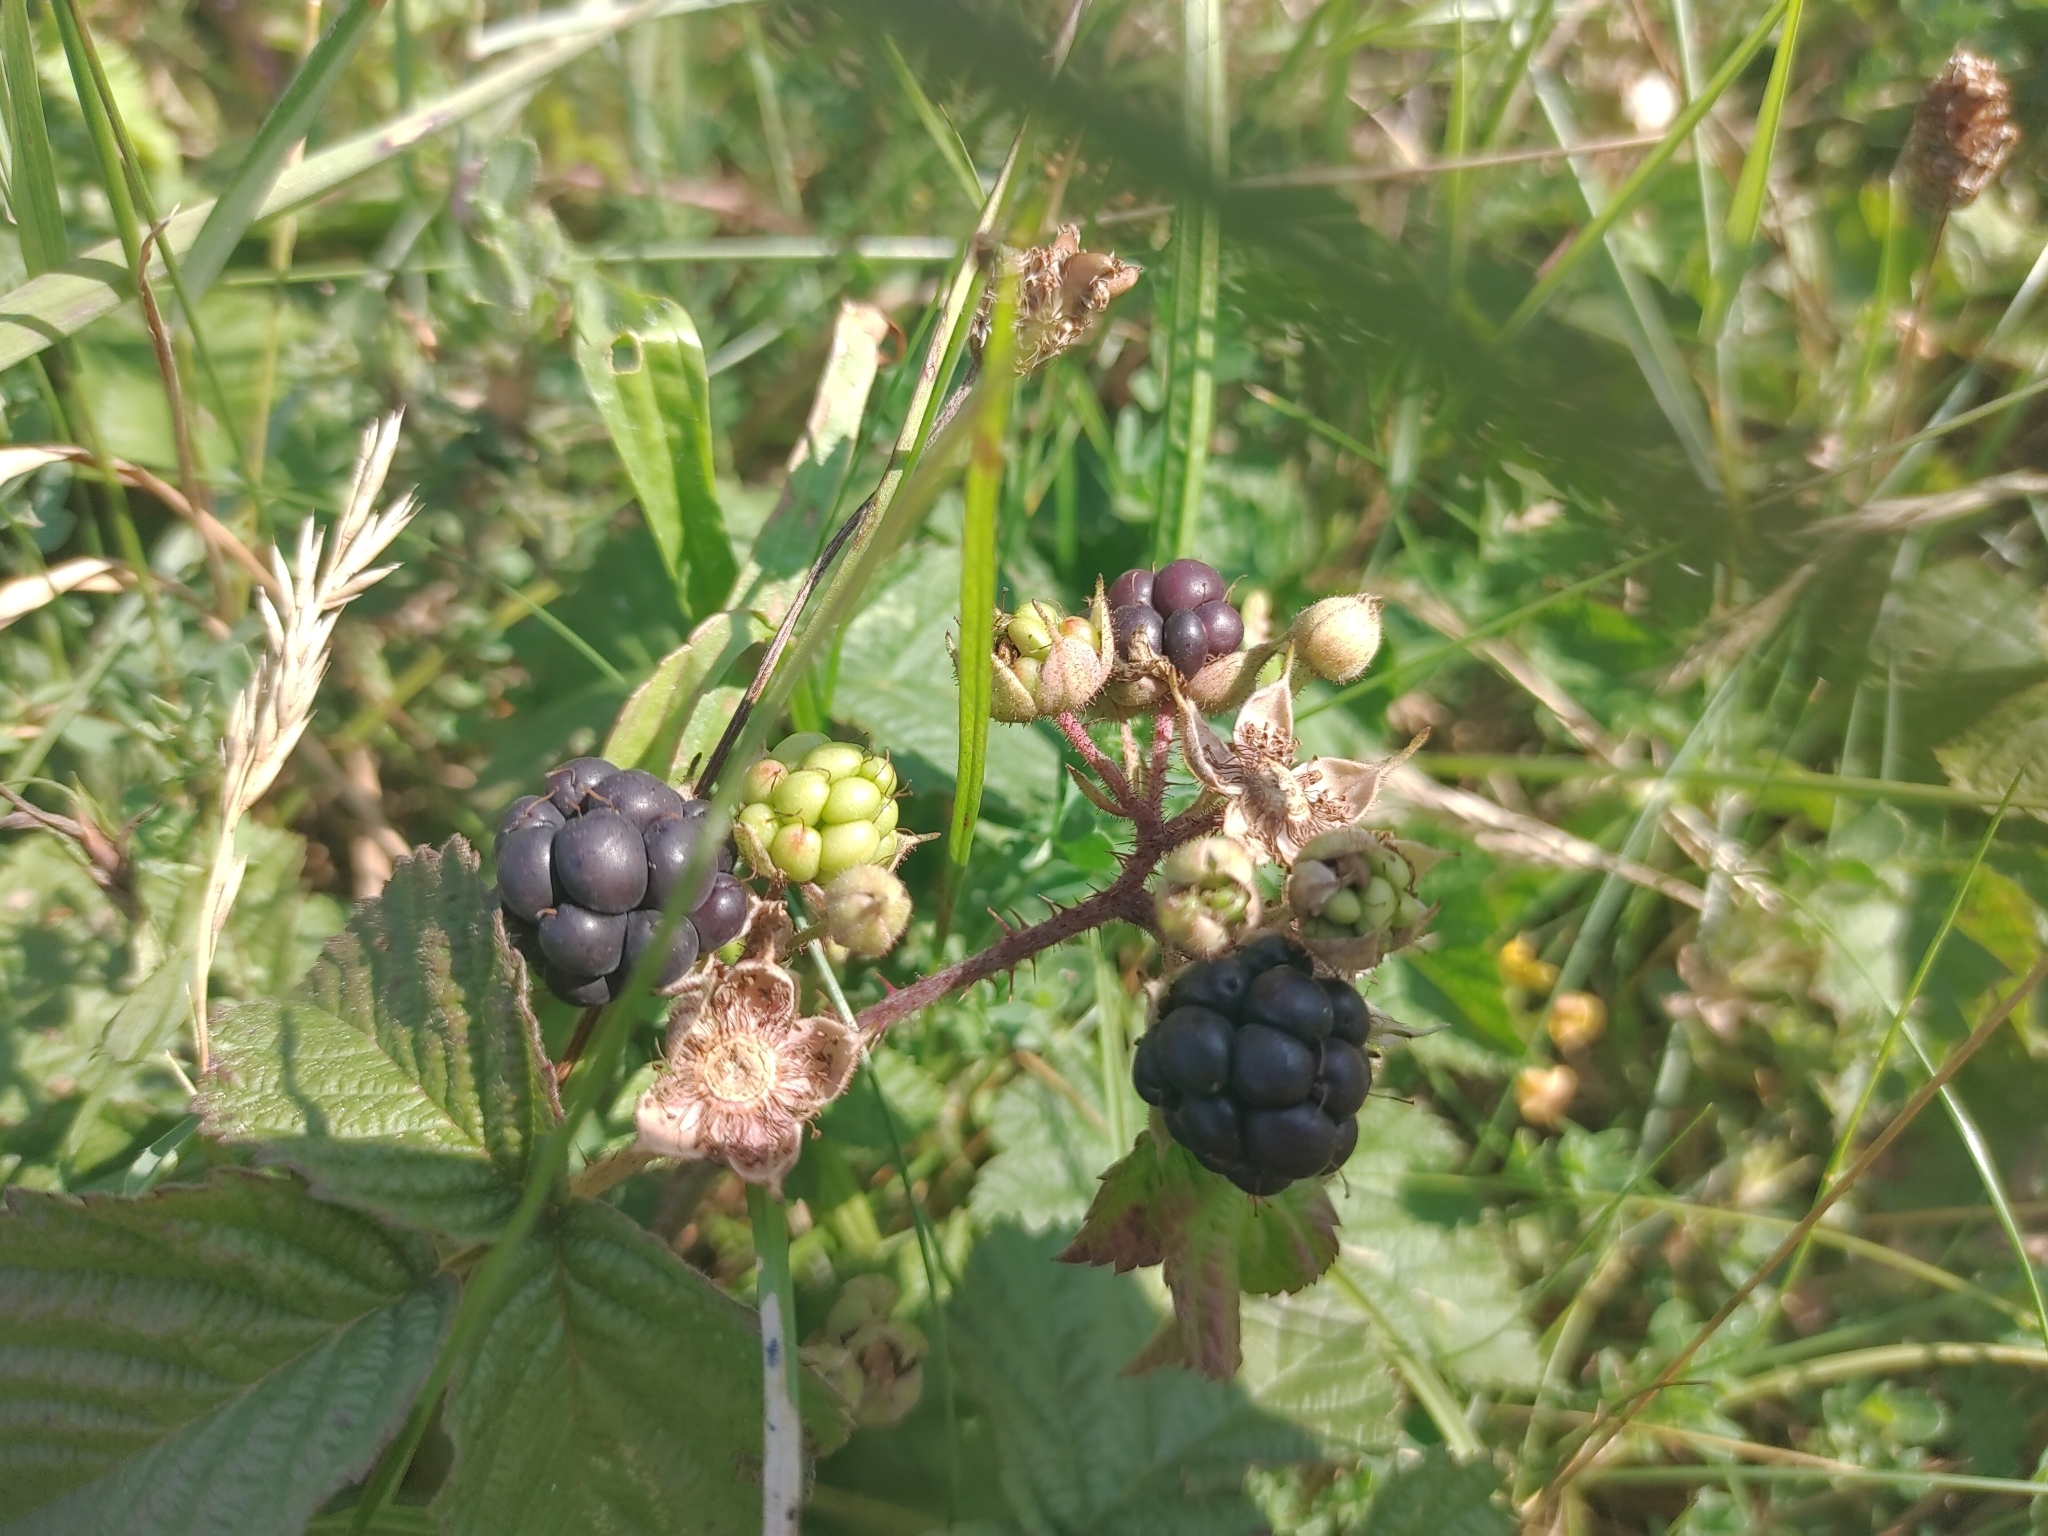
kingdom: Plantae
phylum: Tracheophyta
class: Magnoliopsida
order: Rosales
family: Rosaceae
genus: Rubus
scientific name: Rubus caesius
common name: Dewberry
